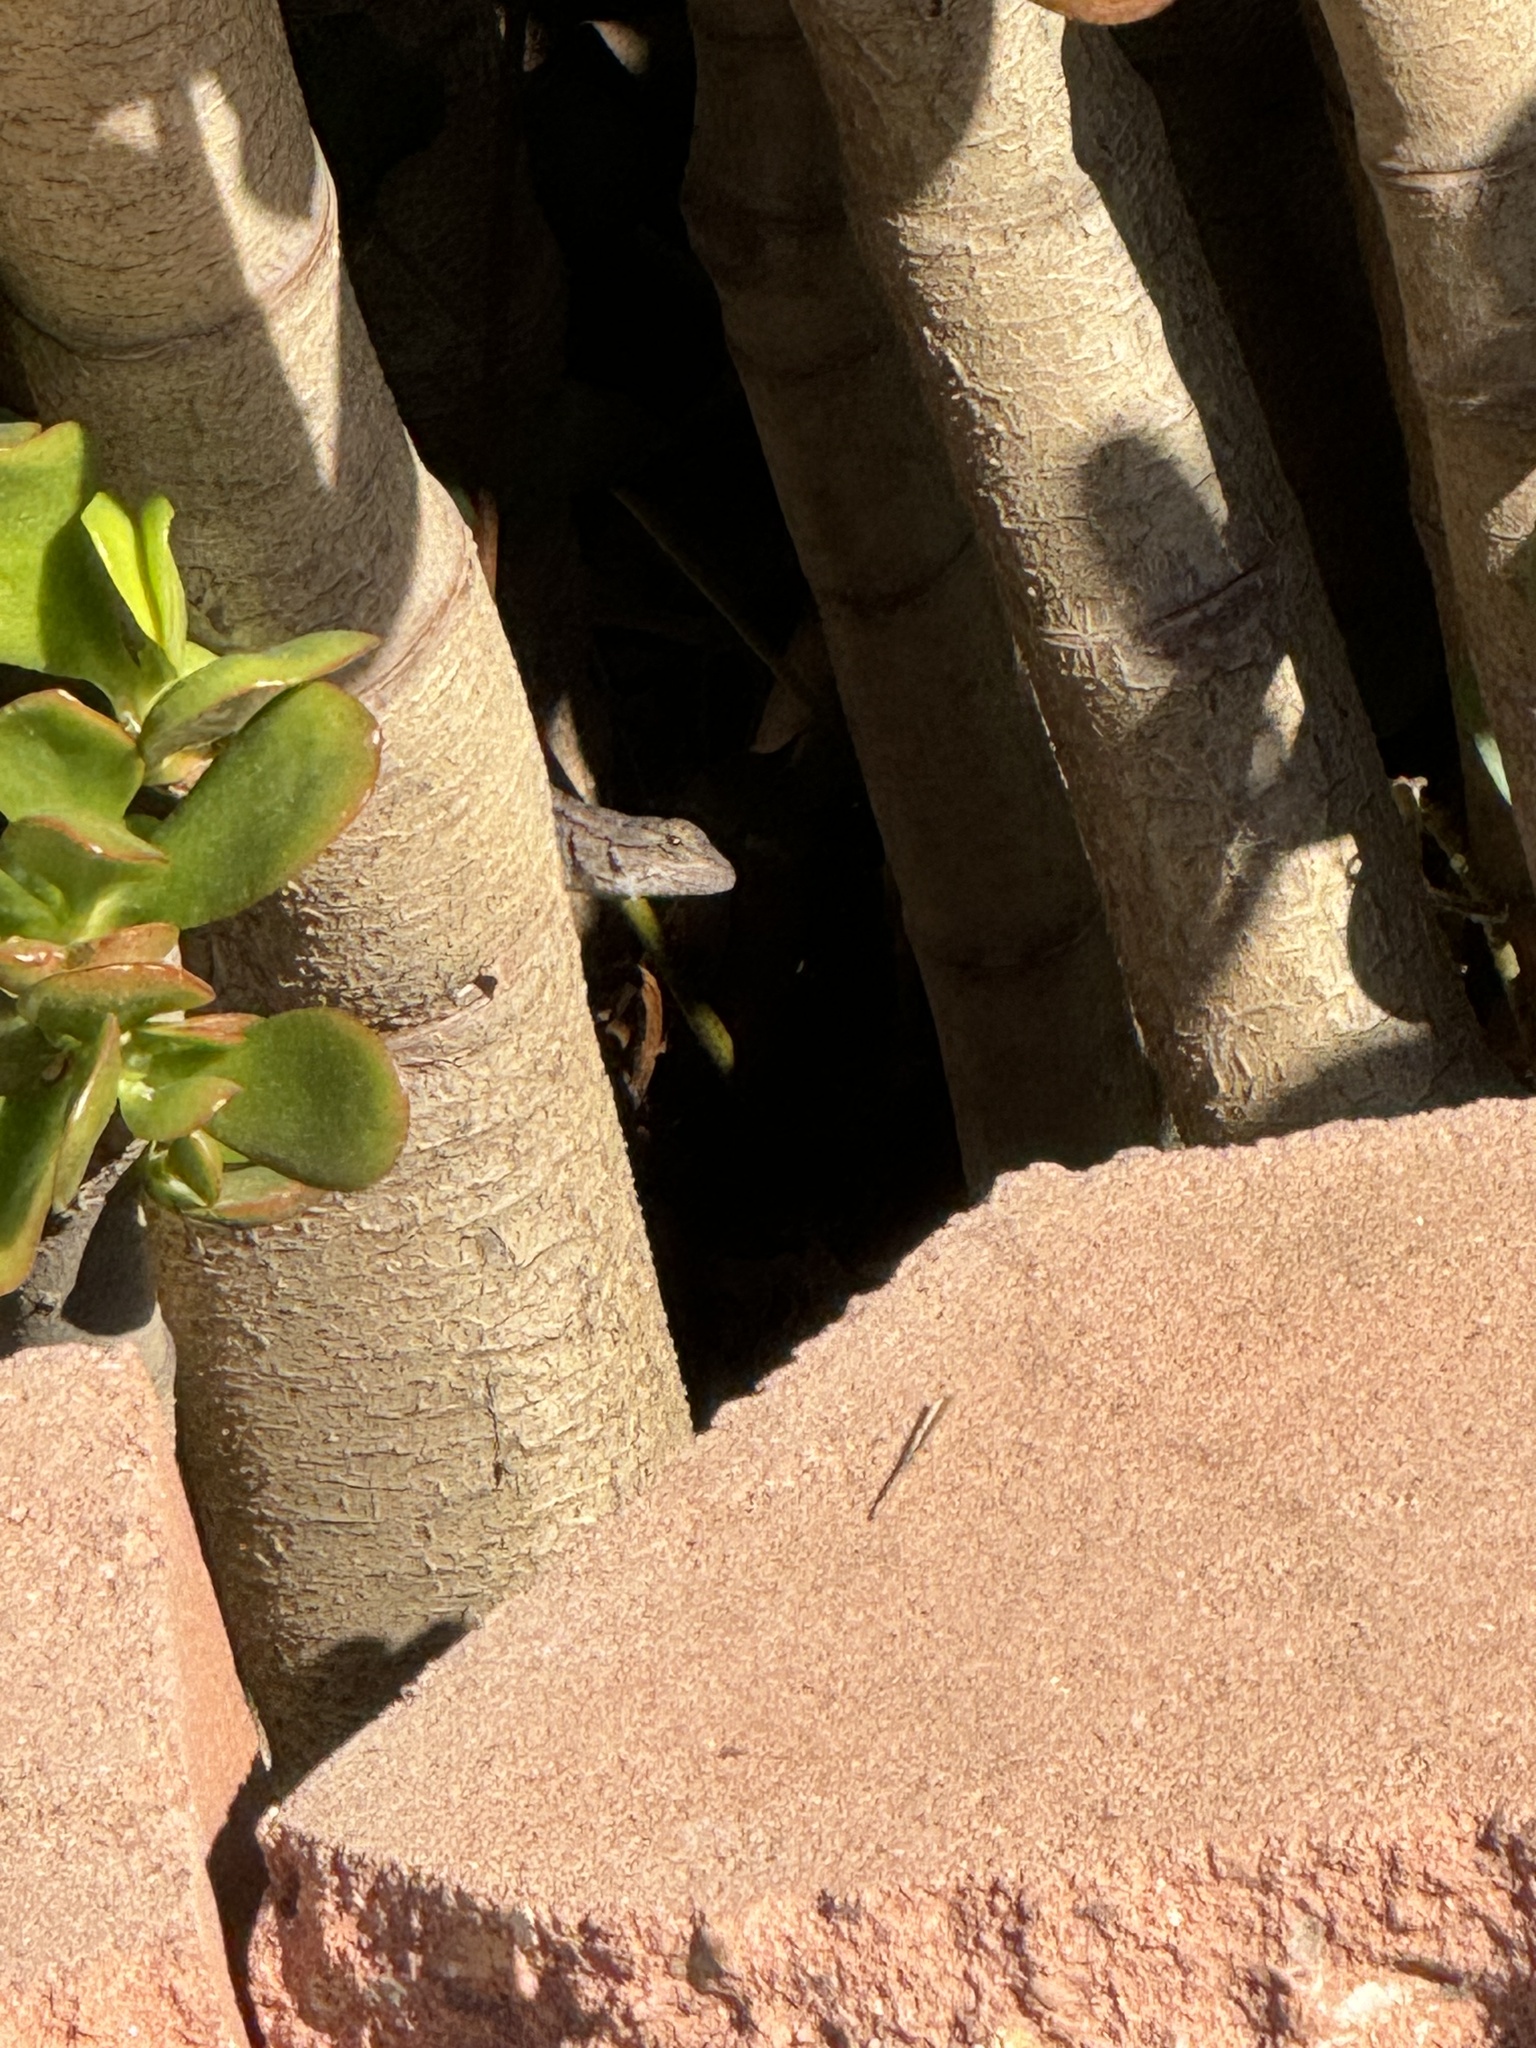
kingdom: Animalia
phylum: Chordata
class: Squamata
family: Phrynosomatidae
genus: Sceloporus
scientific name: Sceloporus occidentalis
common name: Western fence lizard
